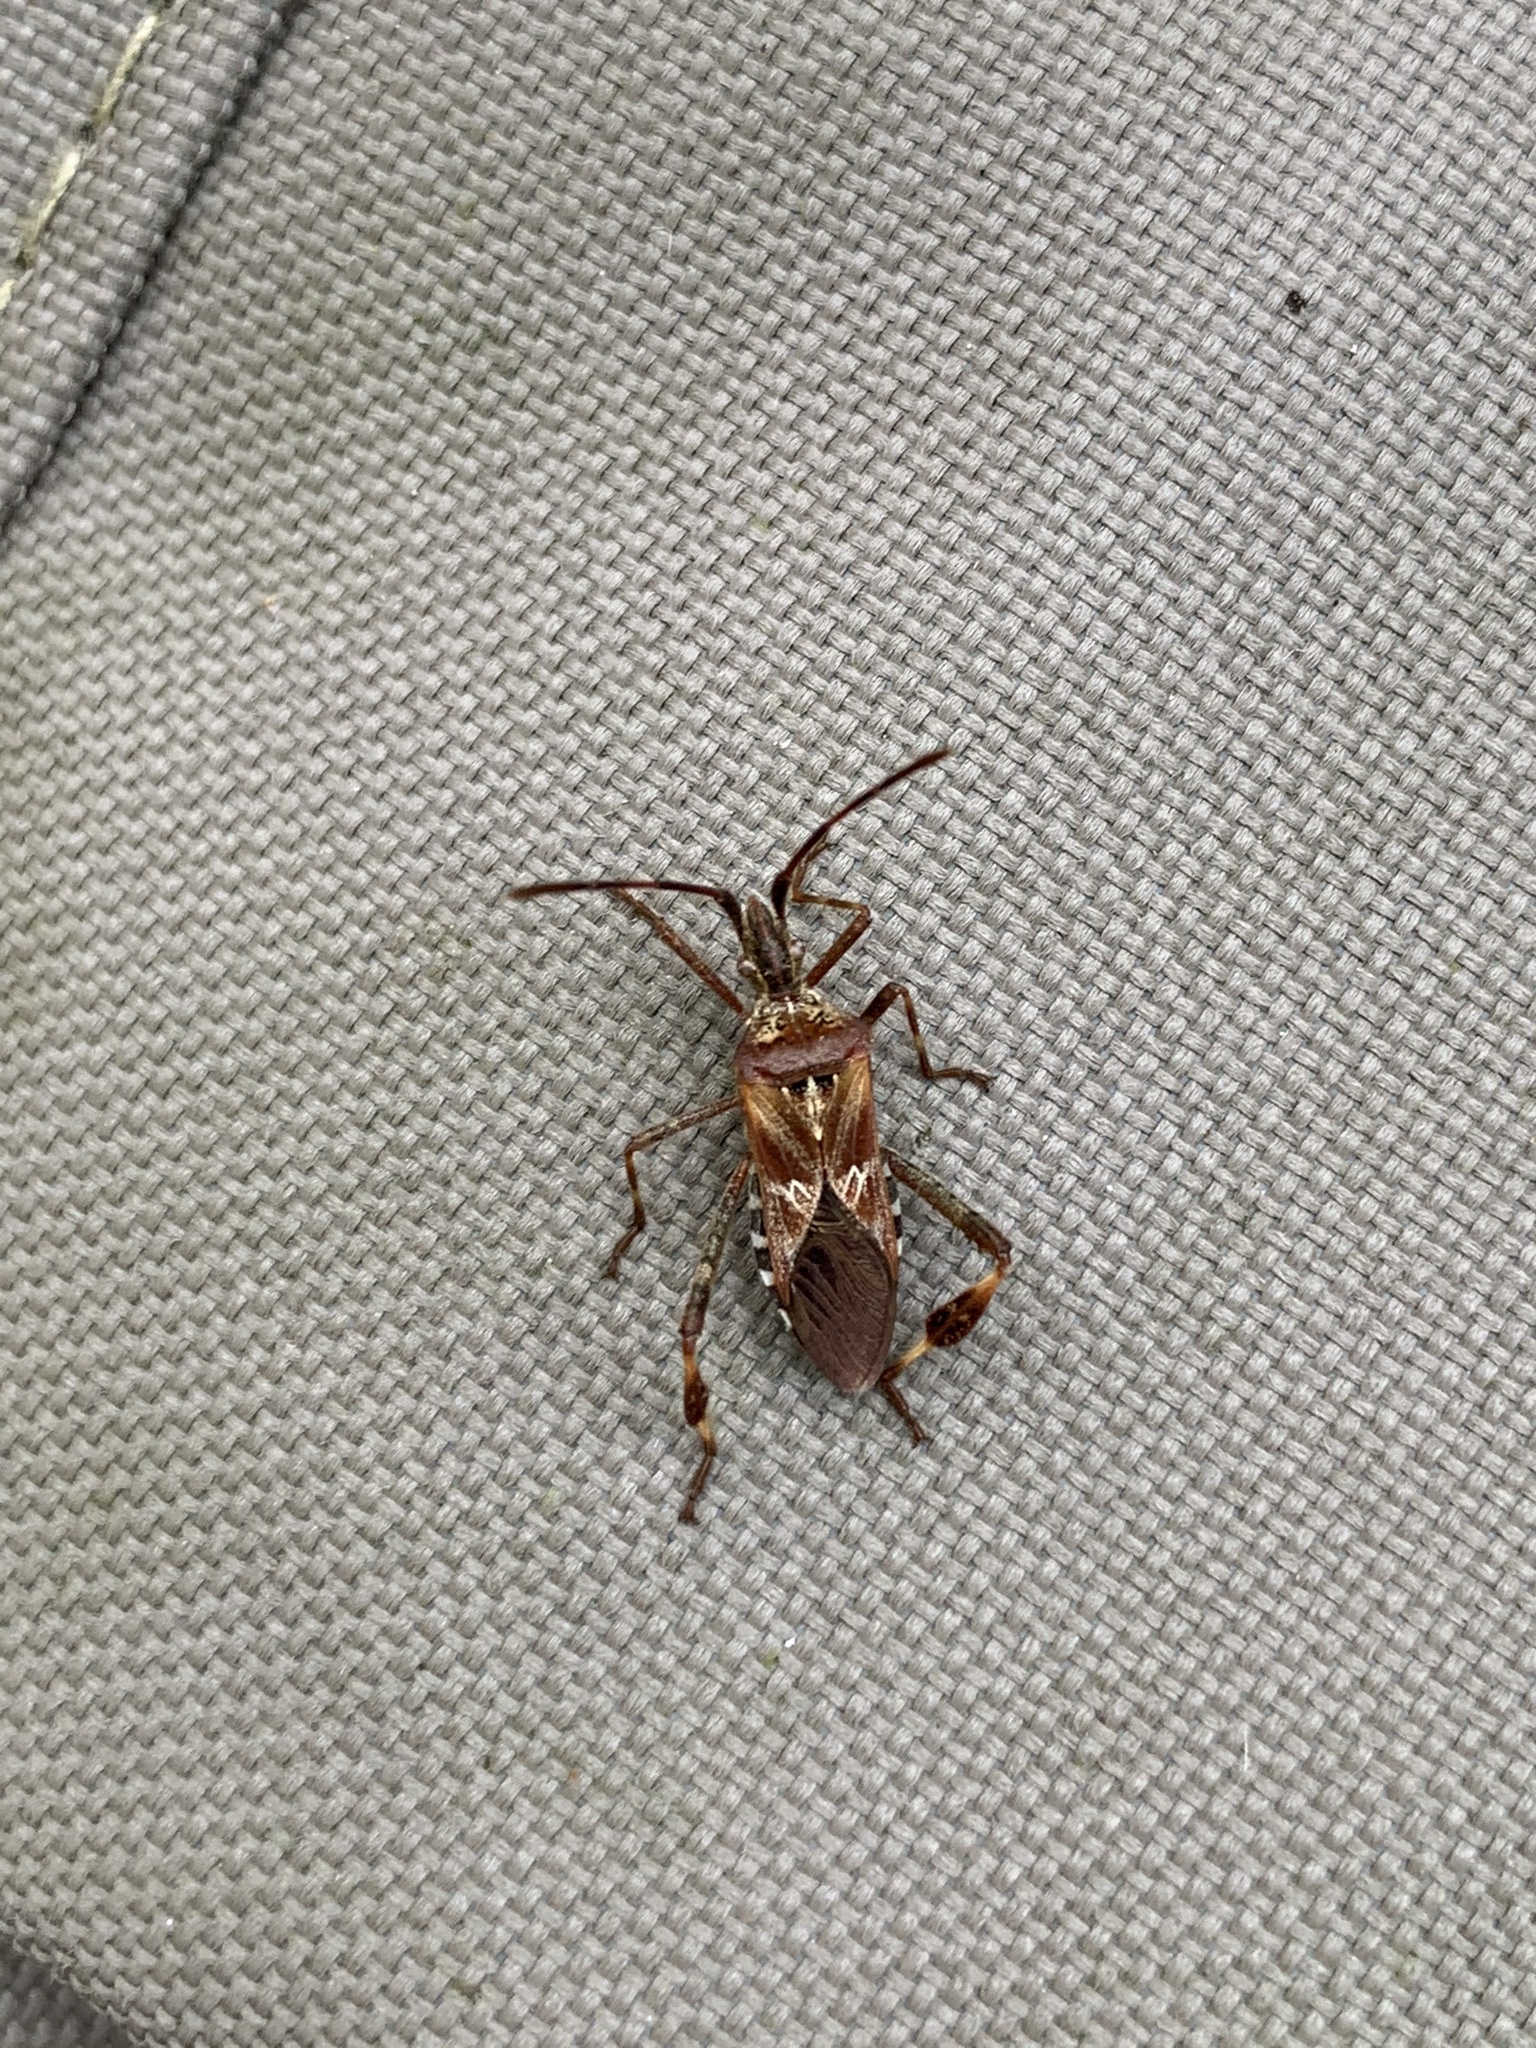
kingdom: Animalia
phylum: Arthropoda
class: Insecta
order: Hemiptera
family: Coreidae
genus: Leptoglossus
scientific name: Leptoglossus occidentalis
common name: Western conifer-seed bug
